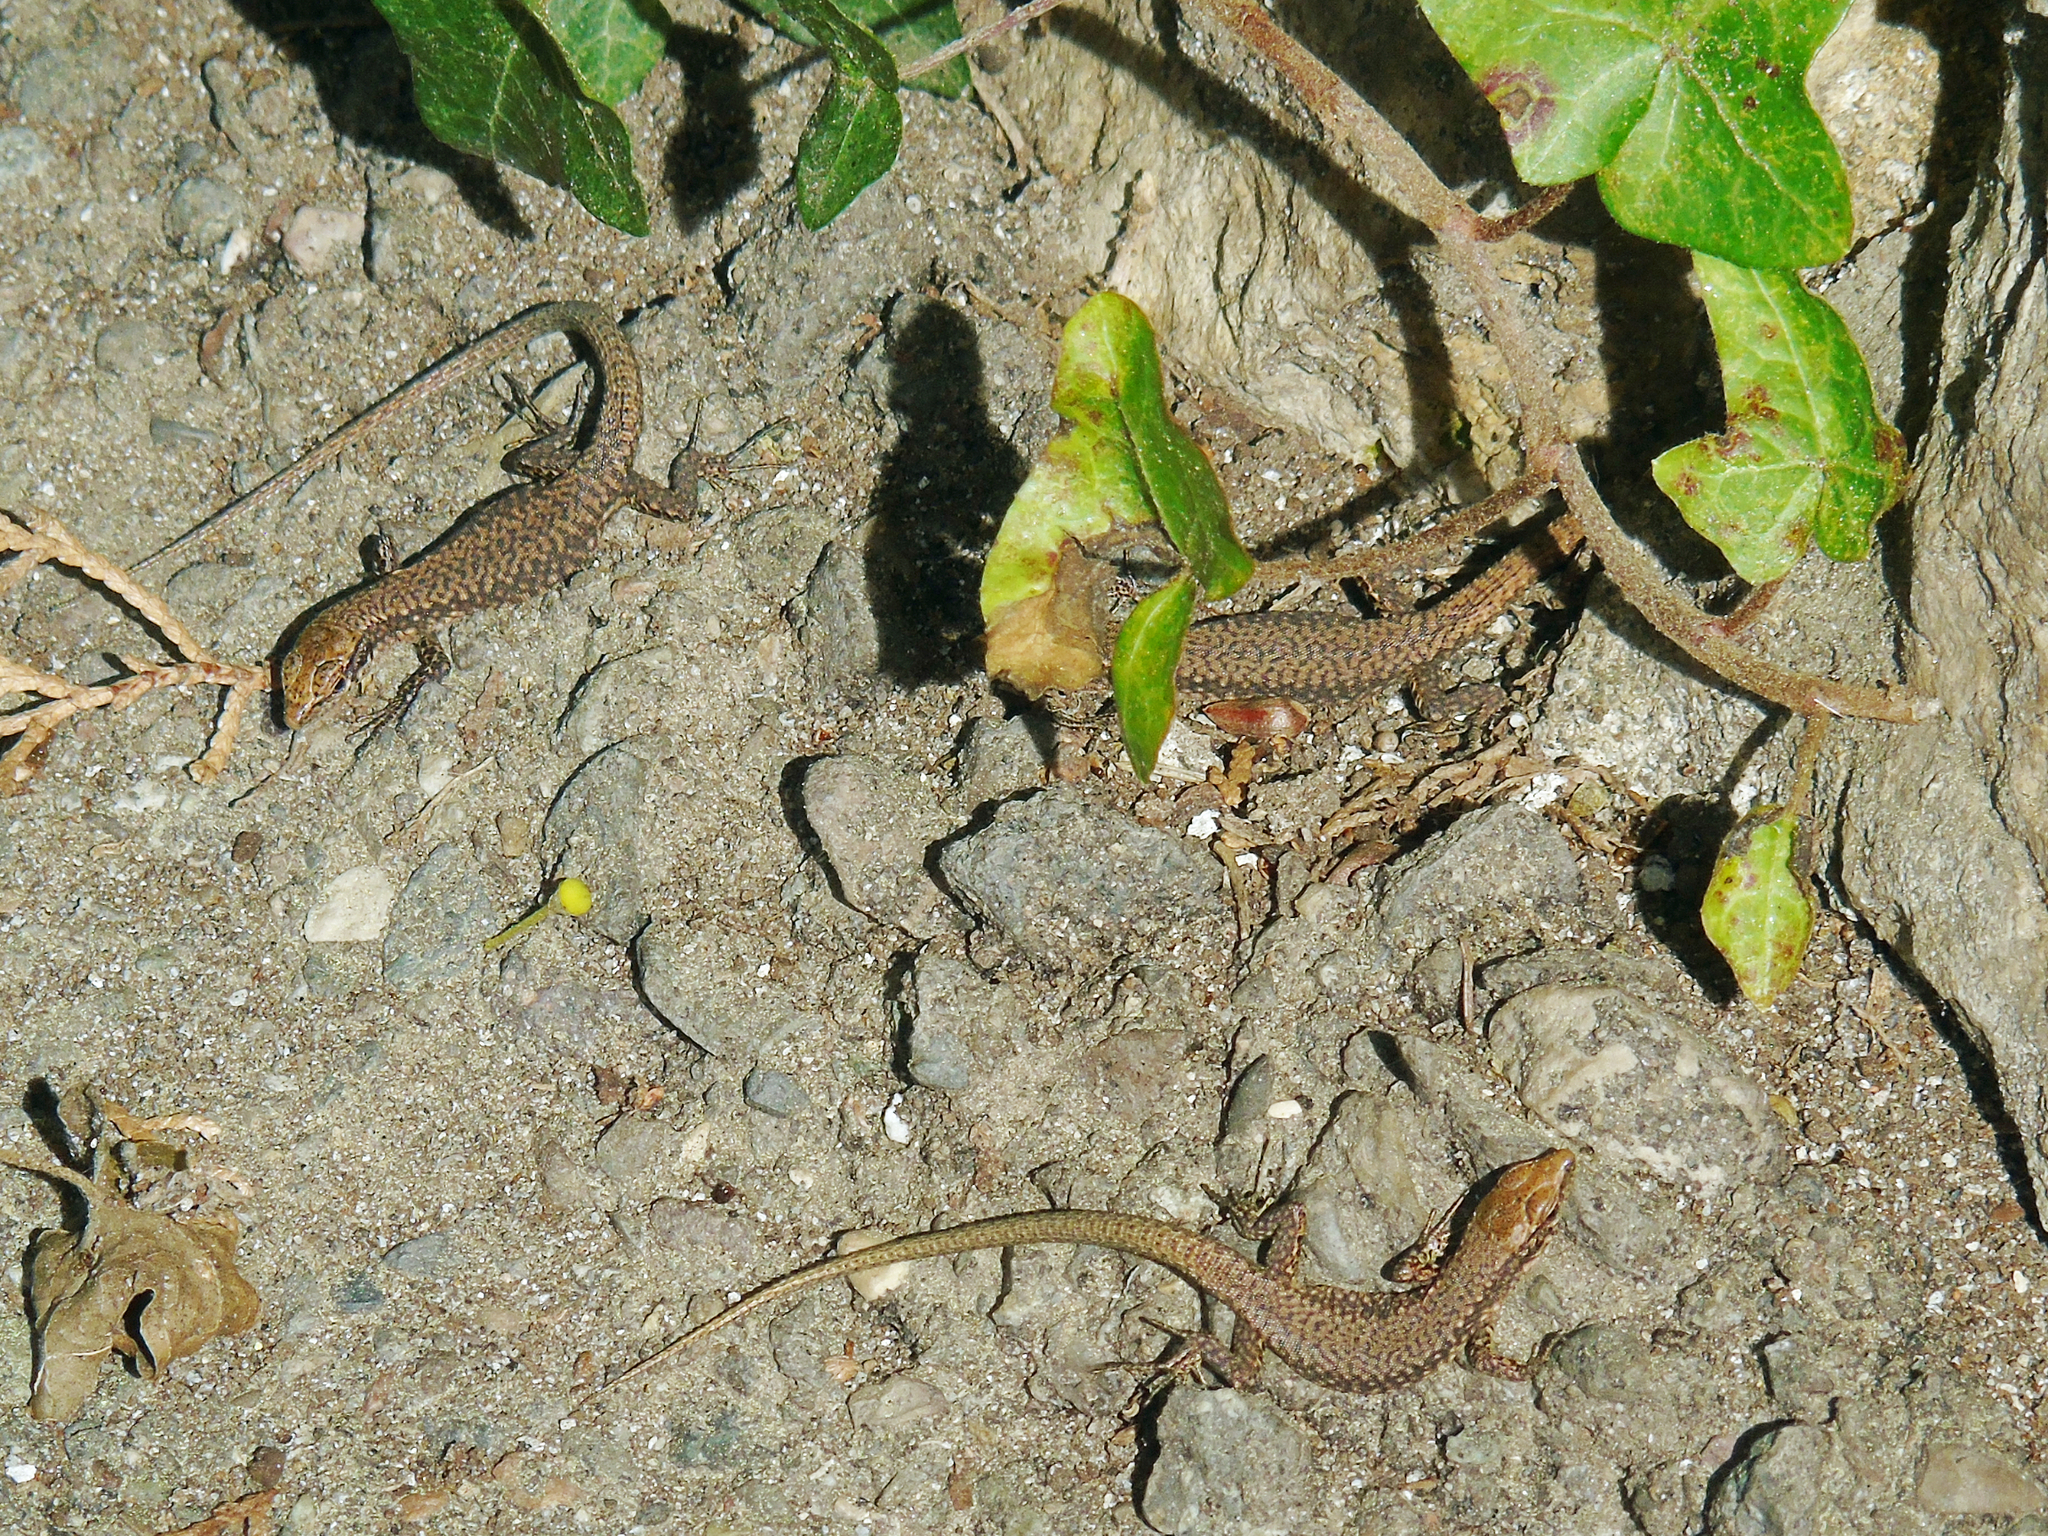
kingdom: Animalia
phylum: Chordata
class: Squamata
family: Lacertidae
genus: Darevskia
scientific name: Darevskia rudis
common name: Spiny-tailed lizard
